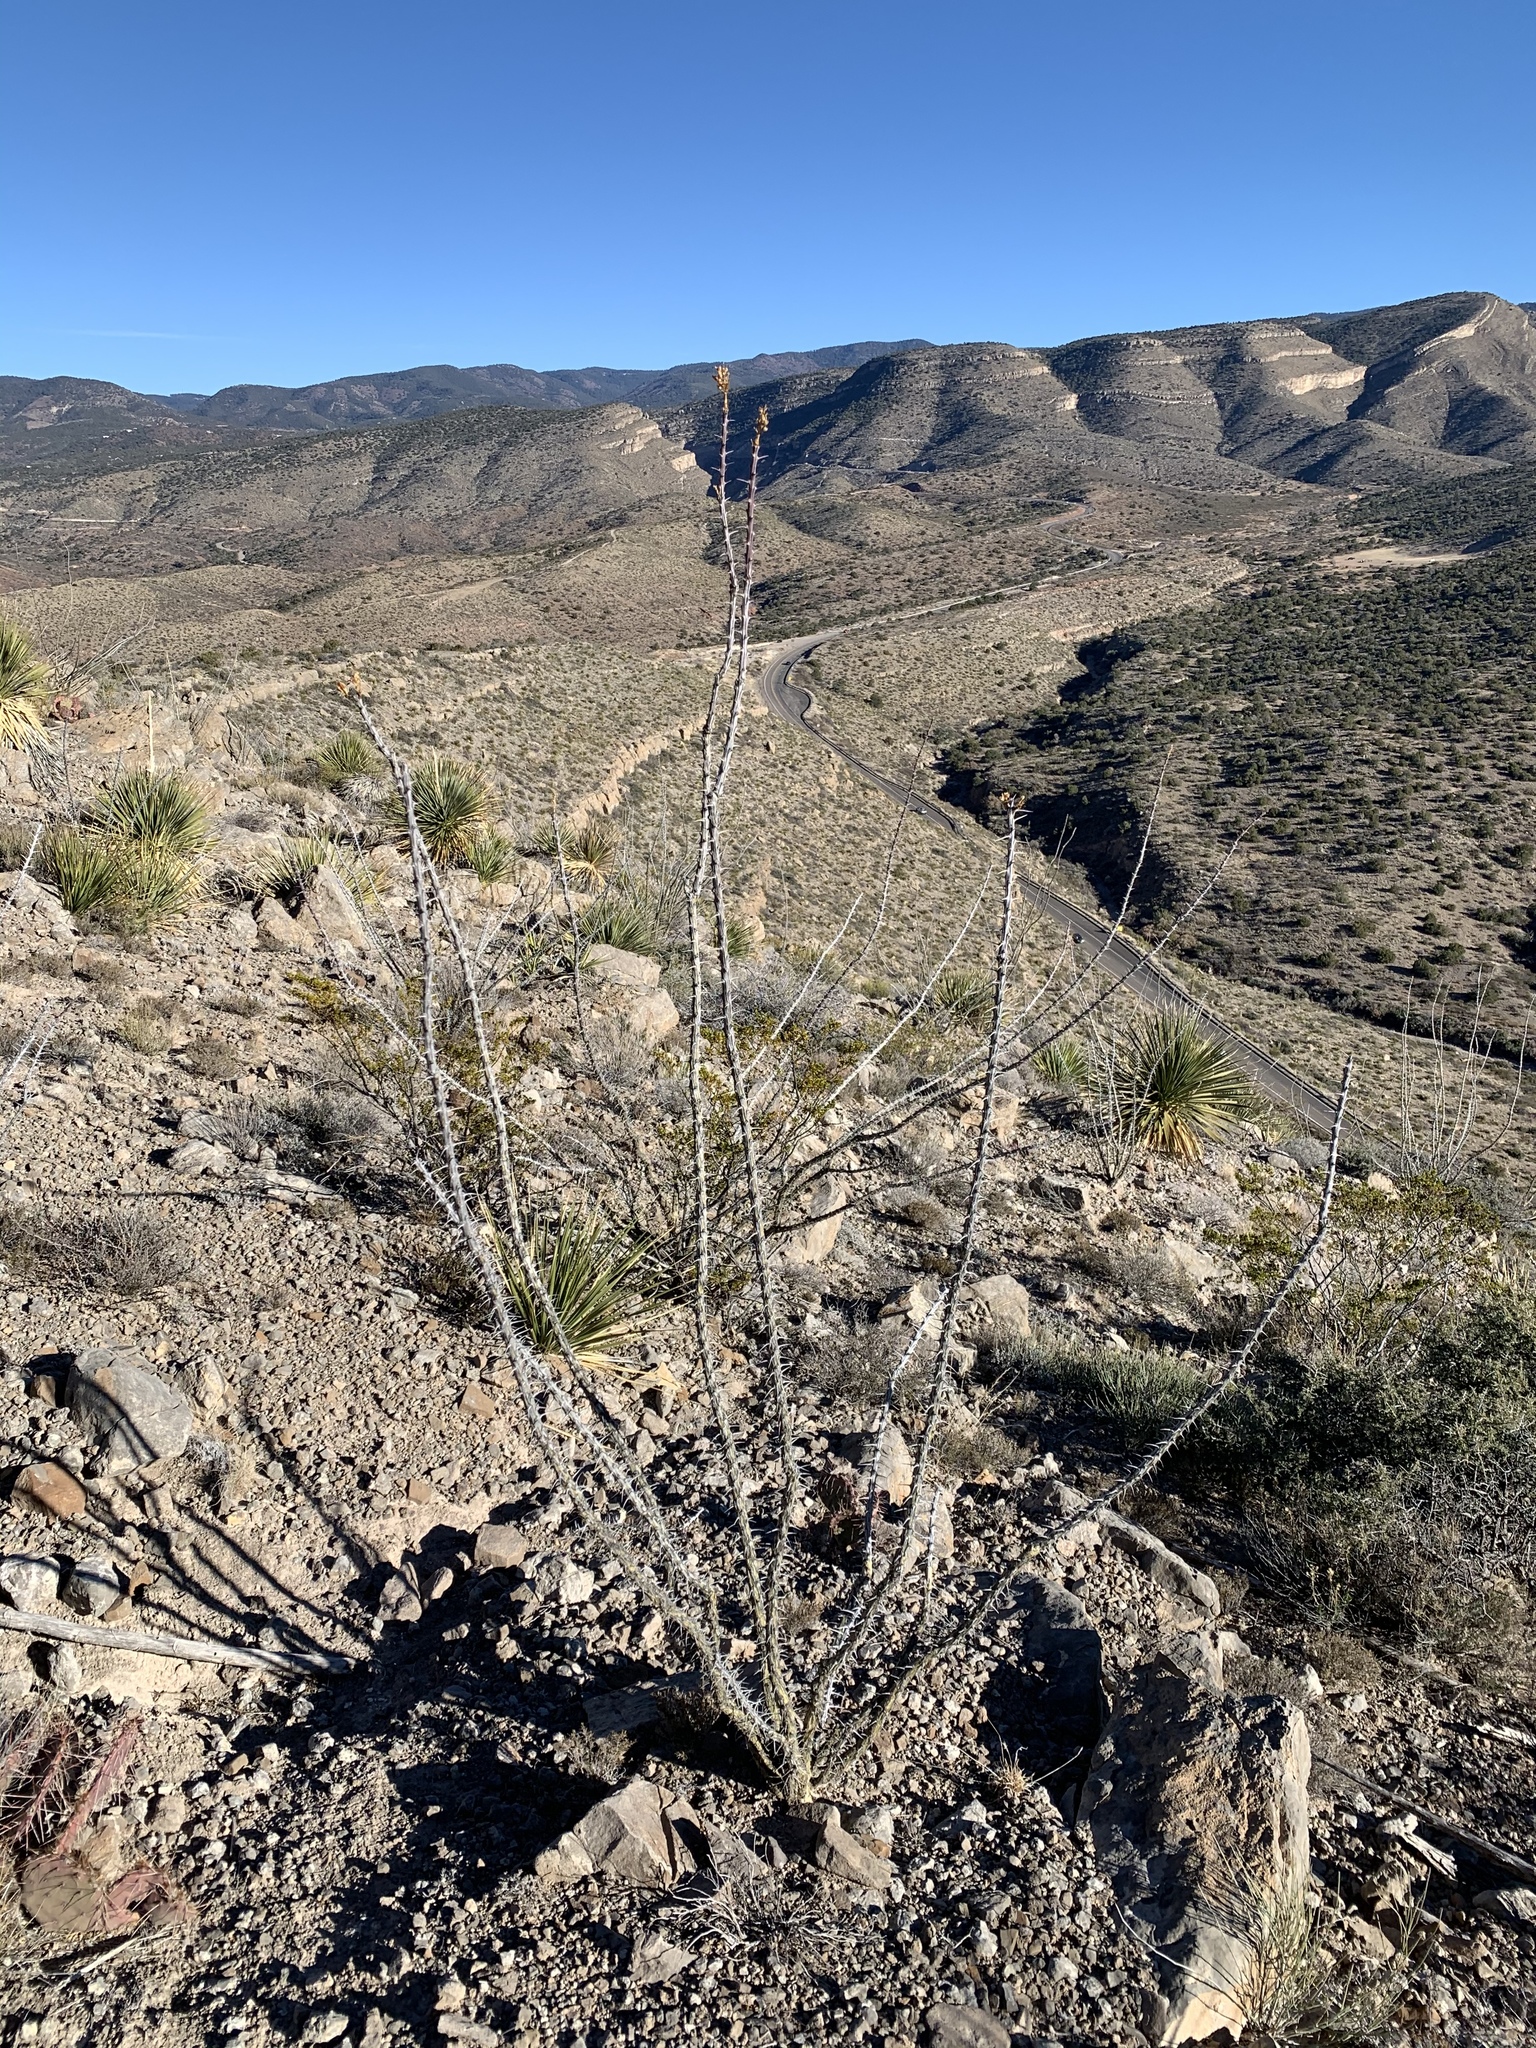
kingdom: Plantae
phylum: Tracheophyta
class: Magnoliopsida
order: Ericales
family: Fouquieriaceae
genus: Fouquieria
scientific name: Fouquieria splendens
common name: Vine-cactus
